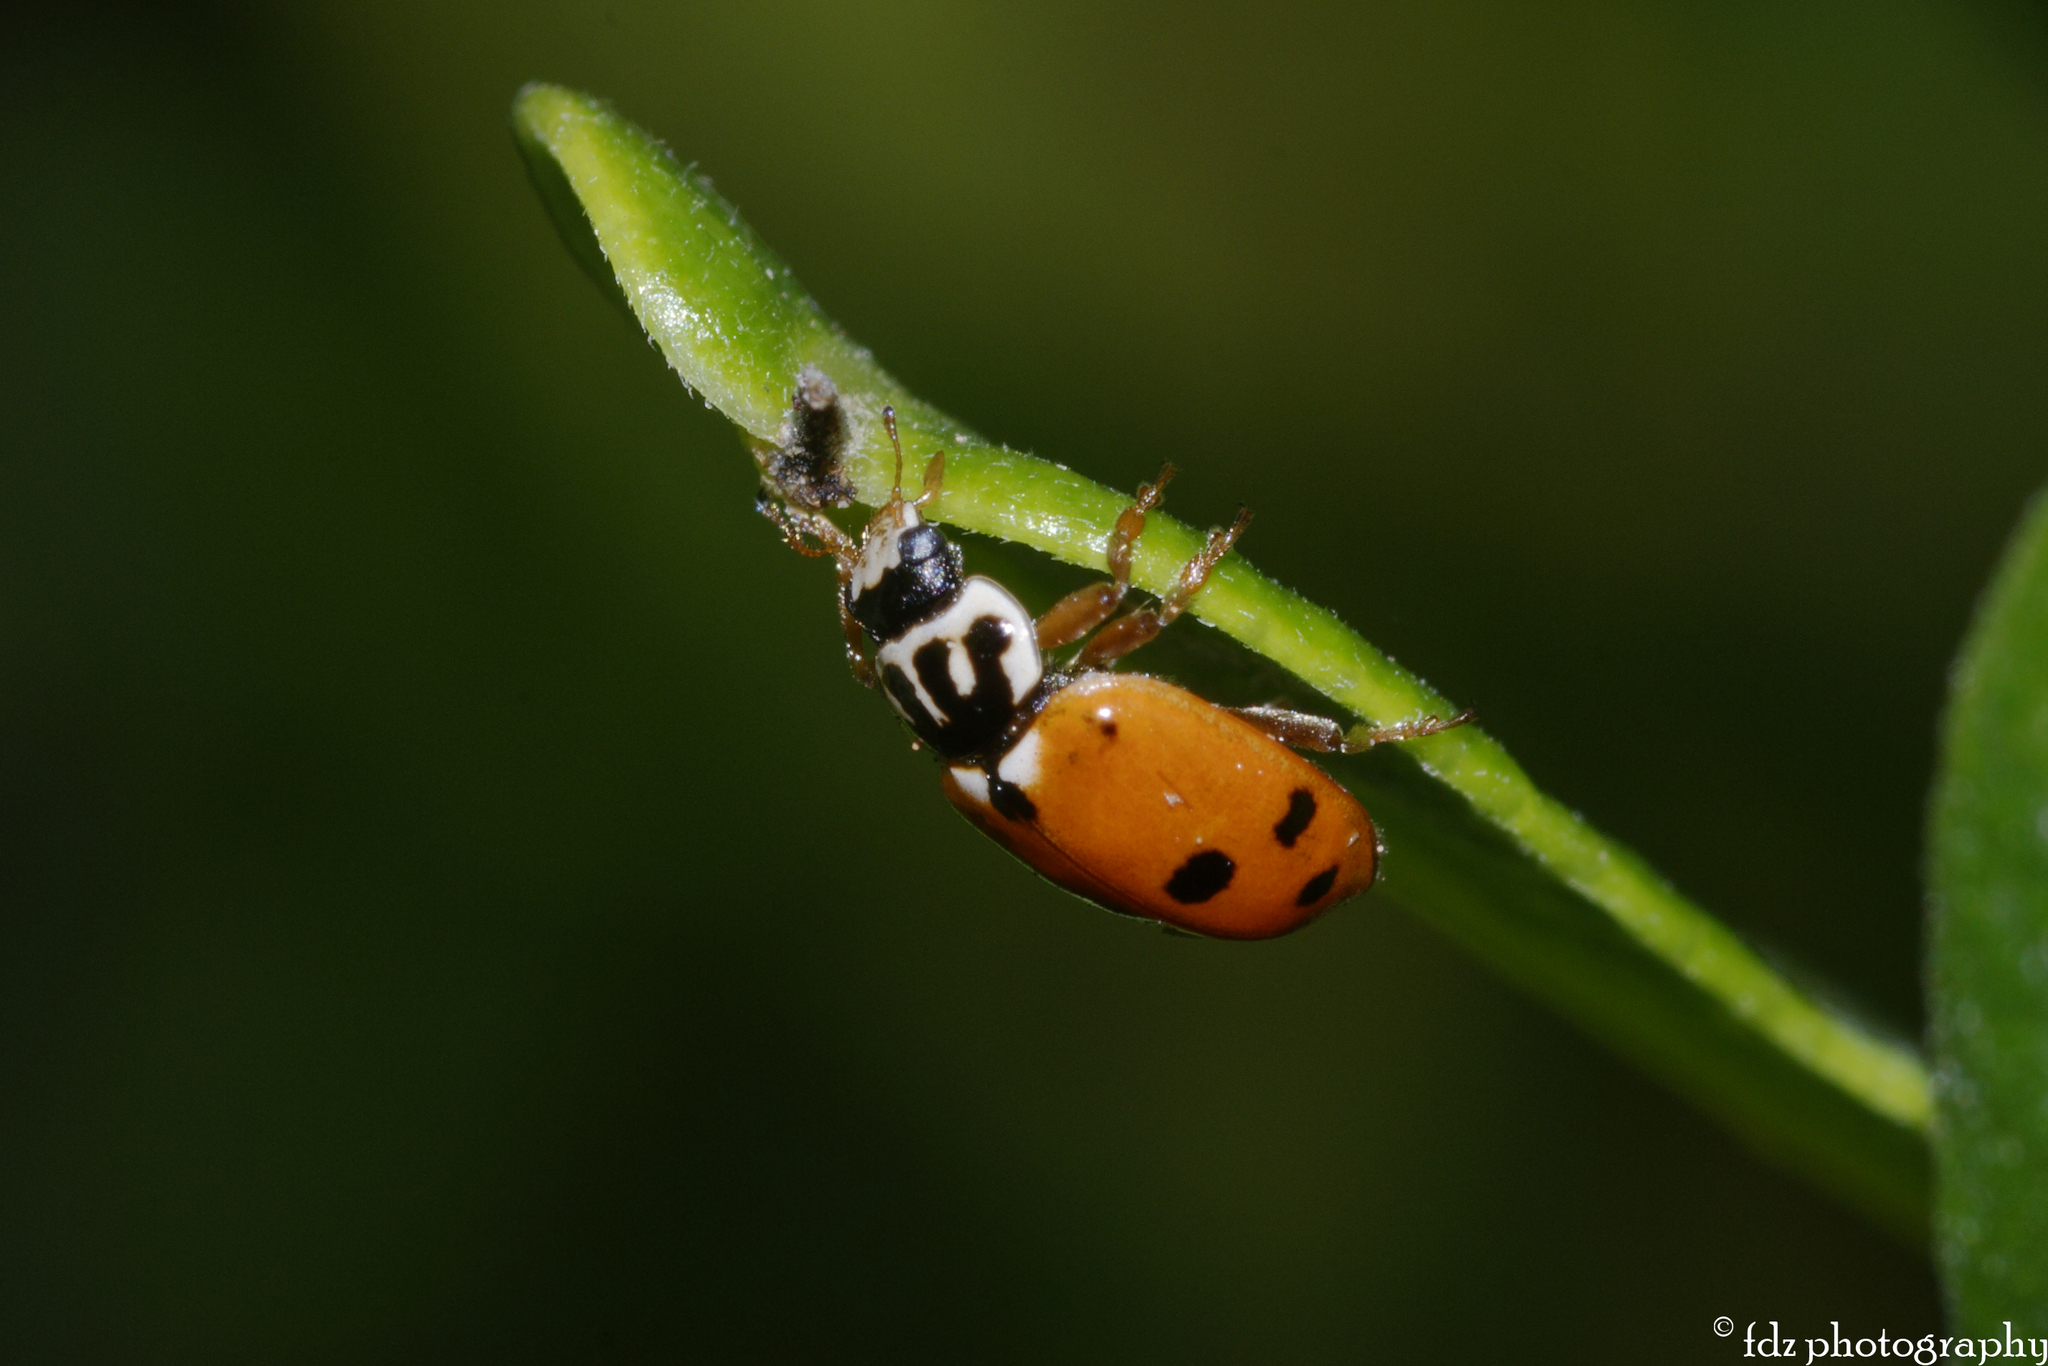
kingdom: Animalia
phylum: Arthropoda
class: Insecta
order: Coleoptera
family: Coccinellidae
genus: Hippodamia
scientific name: Hippodamia variegata
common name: Ladybird beetle
